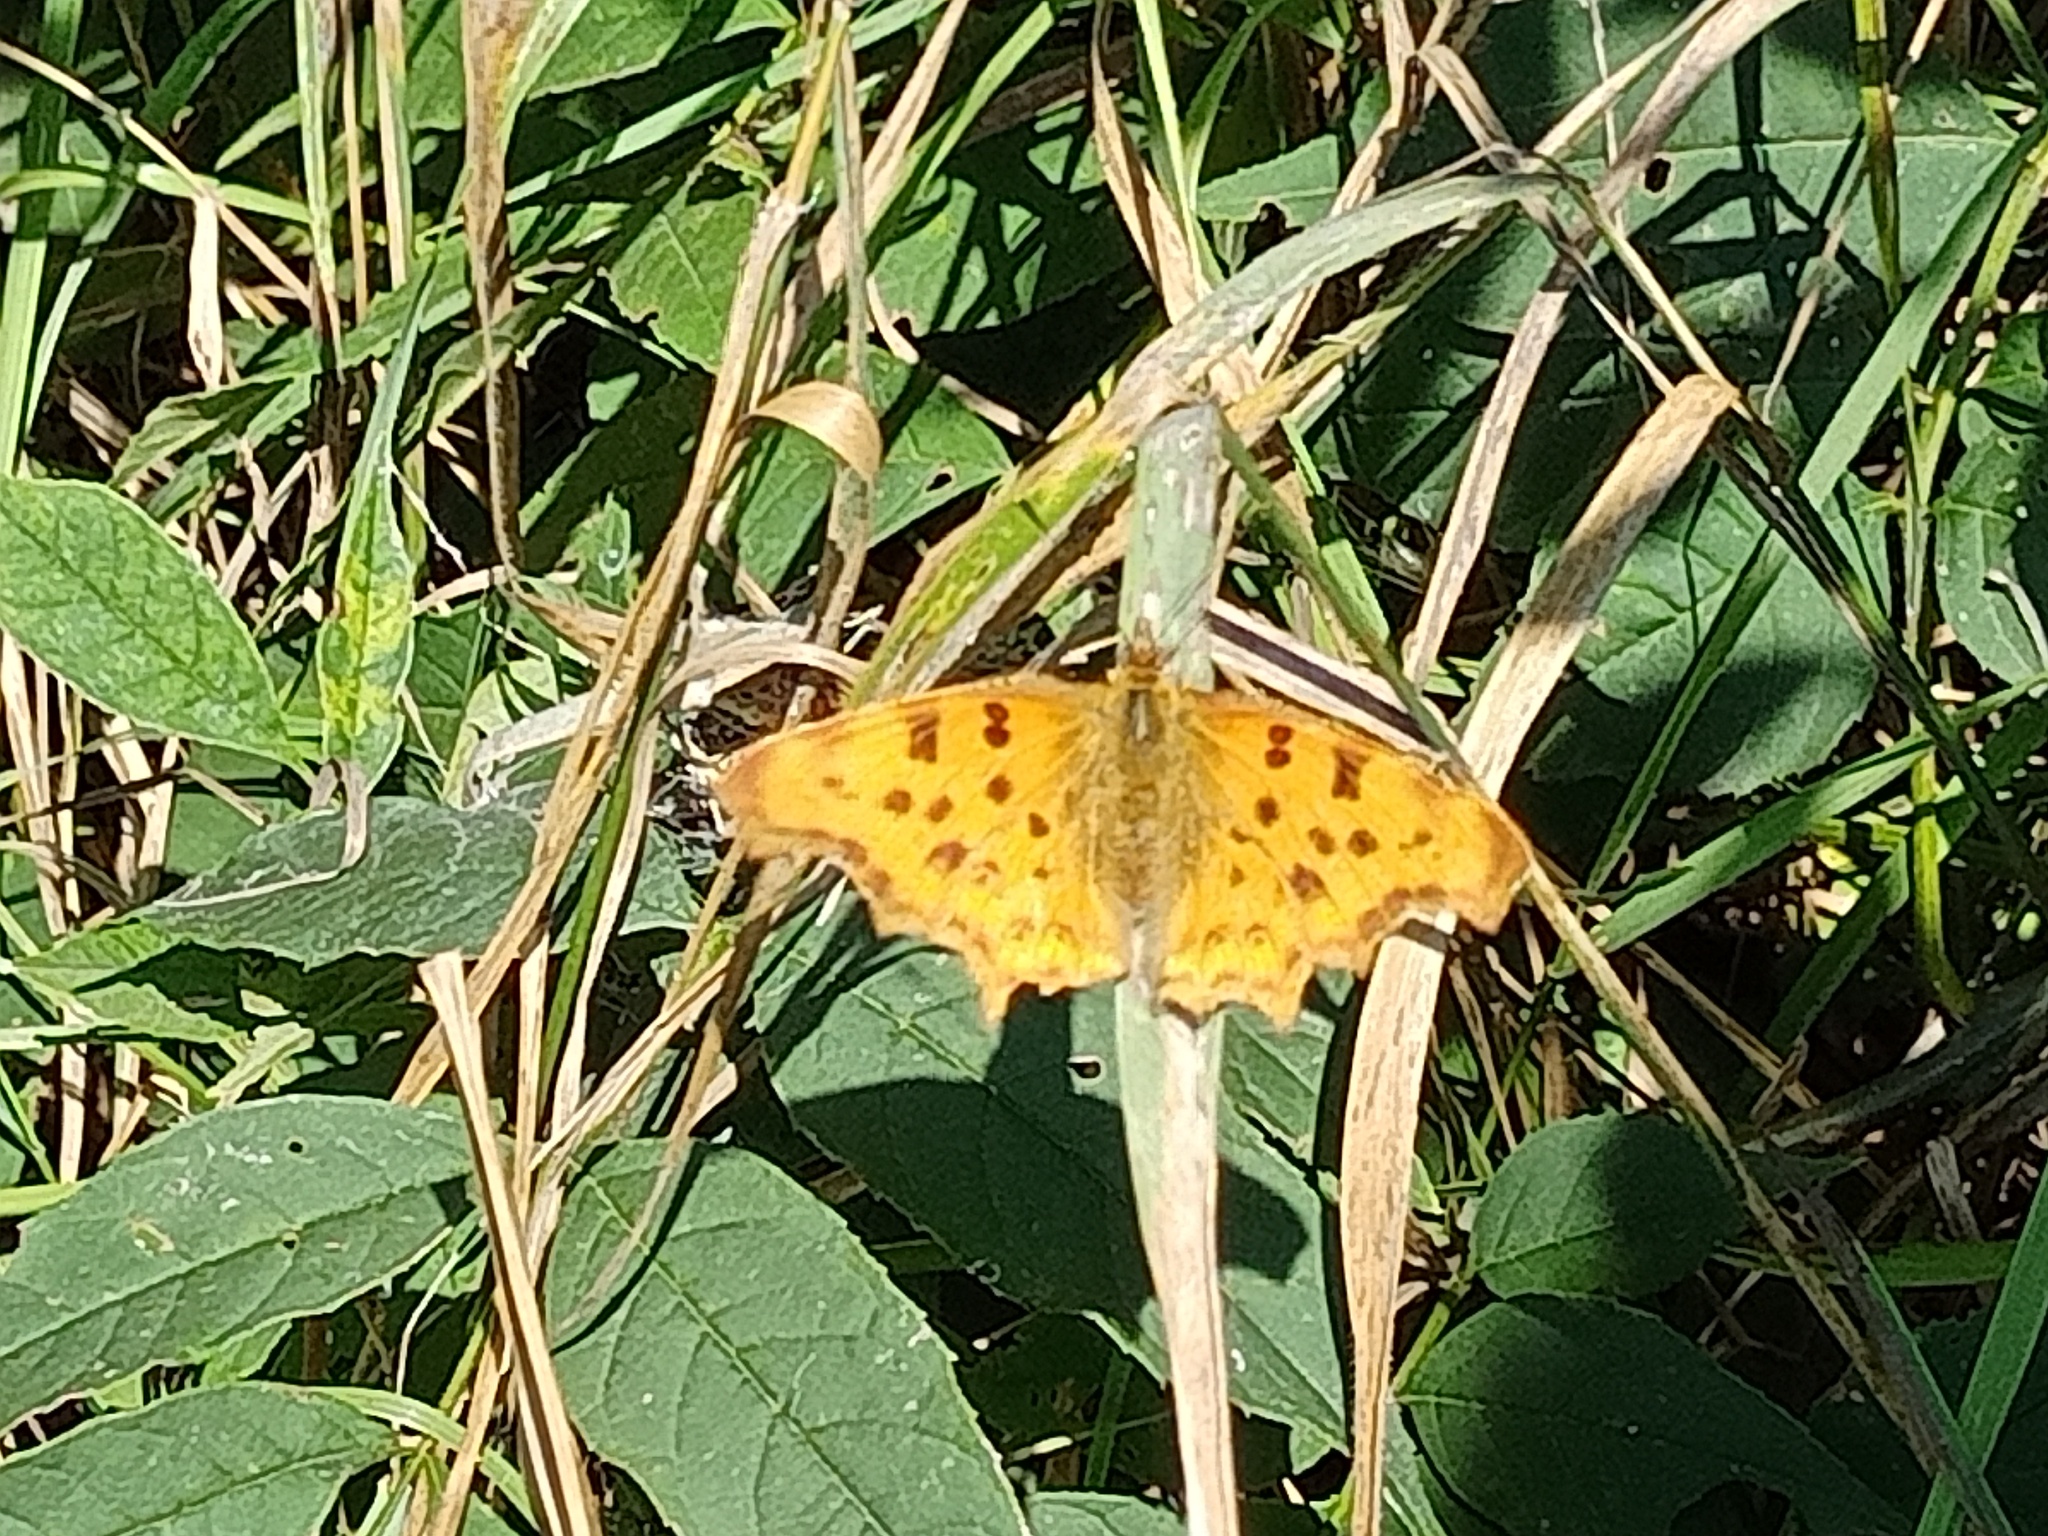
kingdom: Animalia
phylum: Arthropoda
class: Insecta
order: Lepidoptera
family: Nymphalidae
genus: Polygonia
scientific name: Polygonia c-album
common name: Comma
